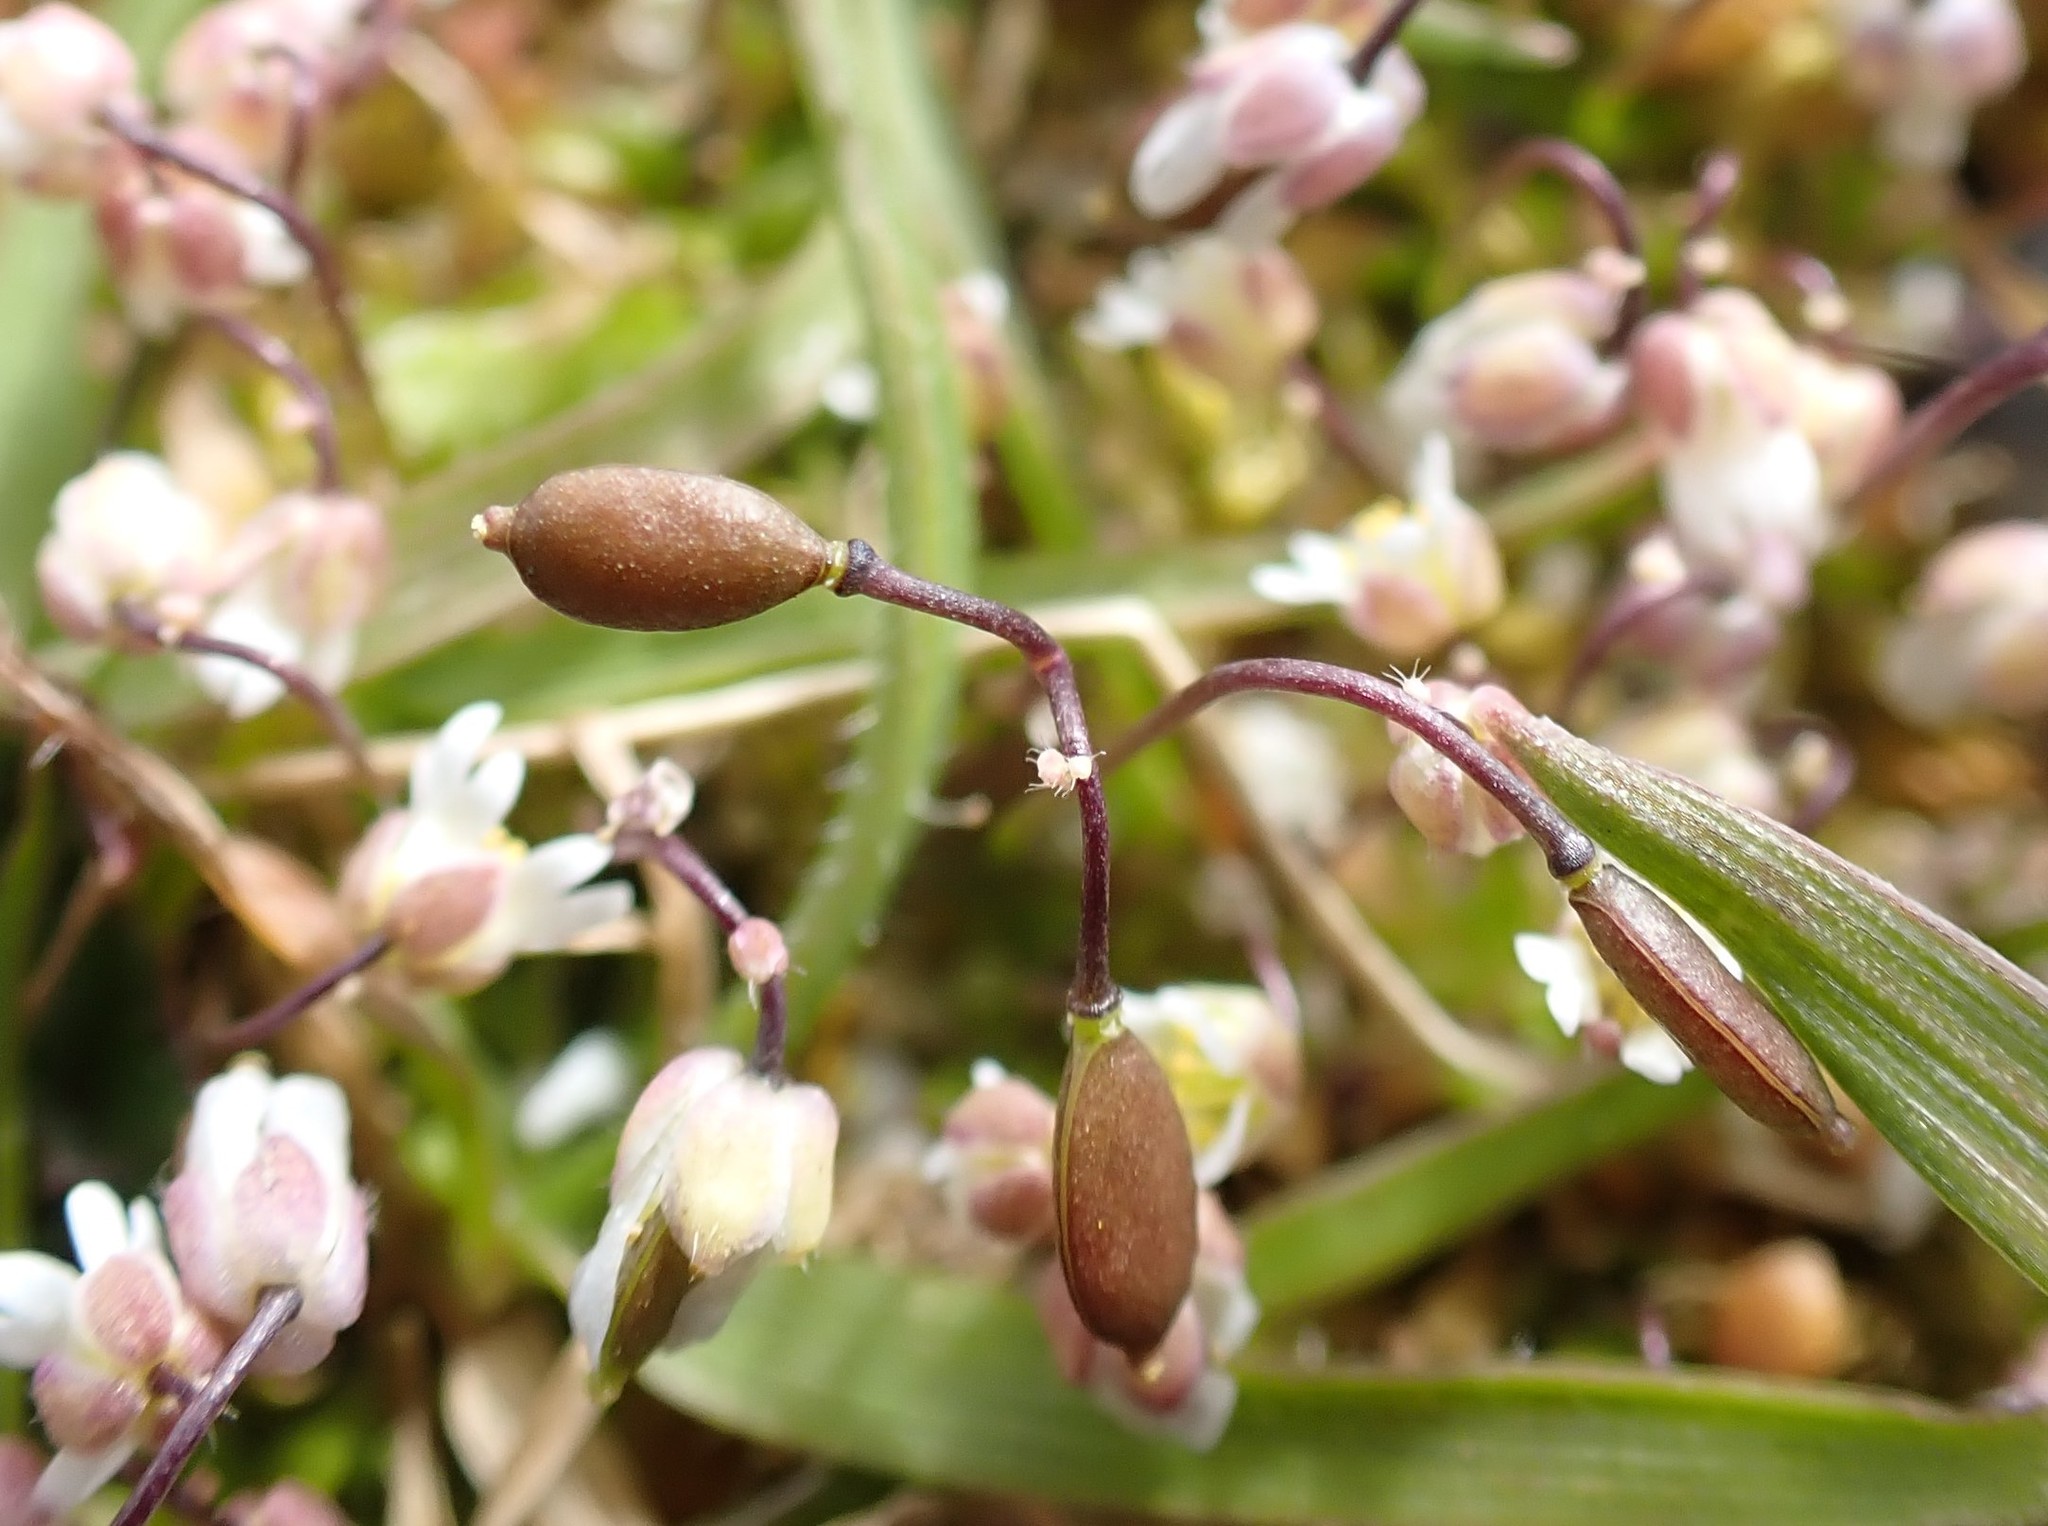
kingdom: Plantae
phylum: Tracheophyta
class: Magnoliopsida
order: Brassicales
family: Brassicaceae
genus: Draba
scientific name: Draba verna
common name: Spring draba
